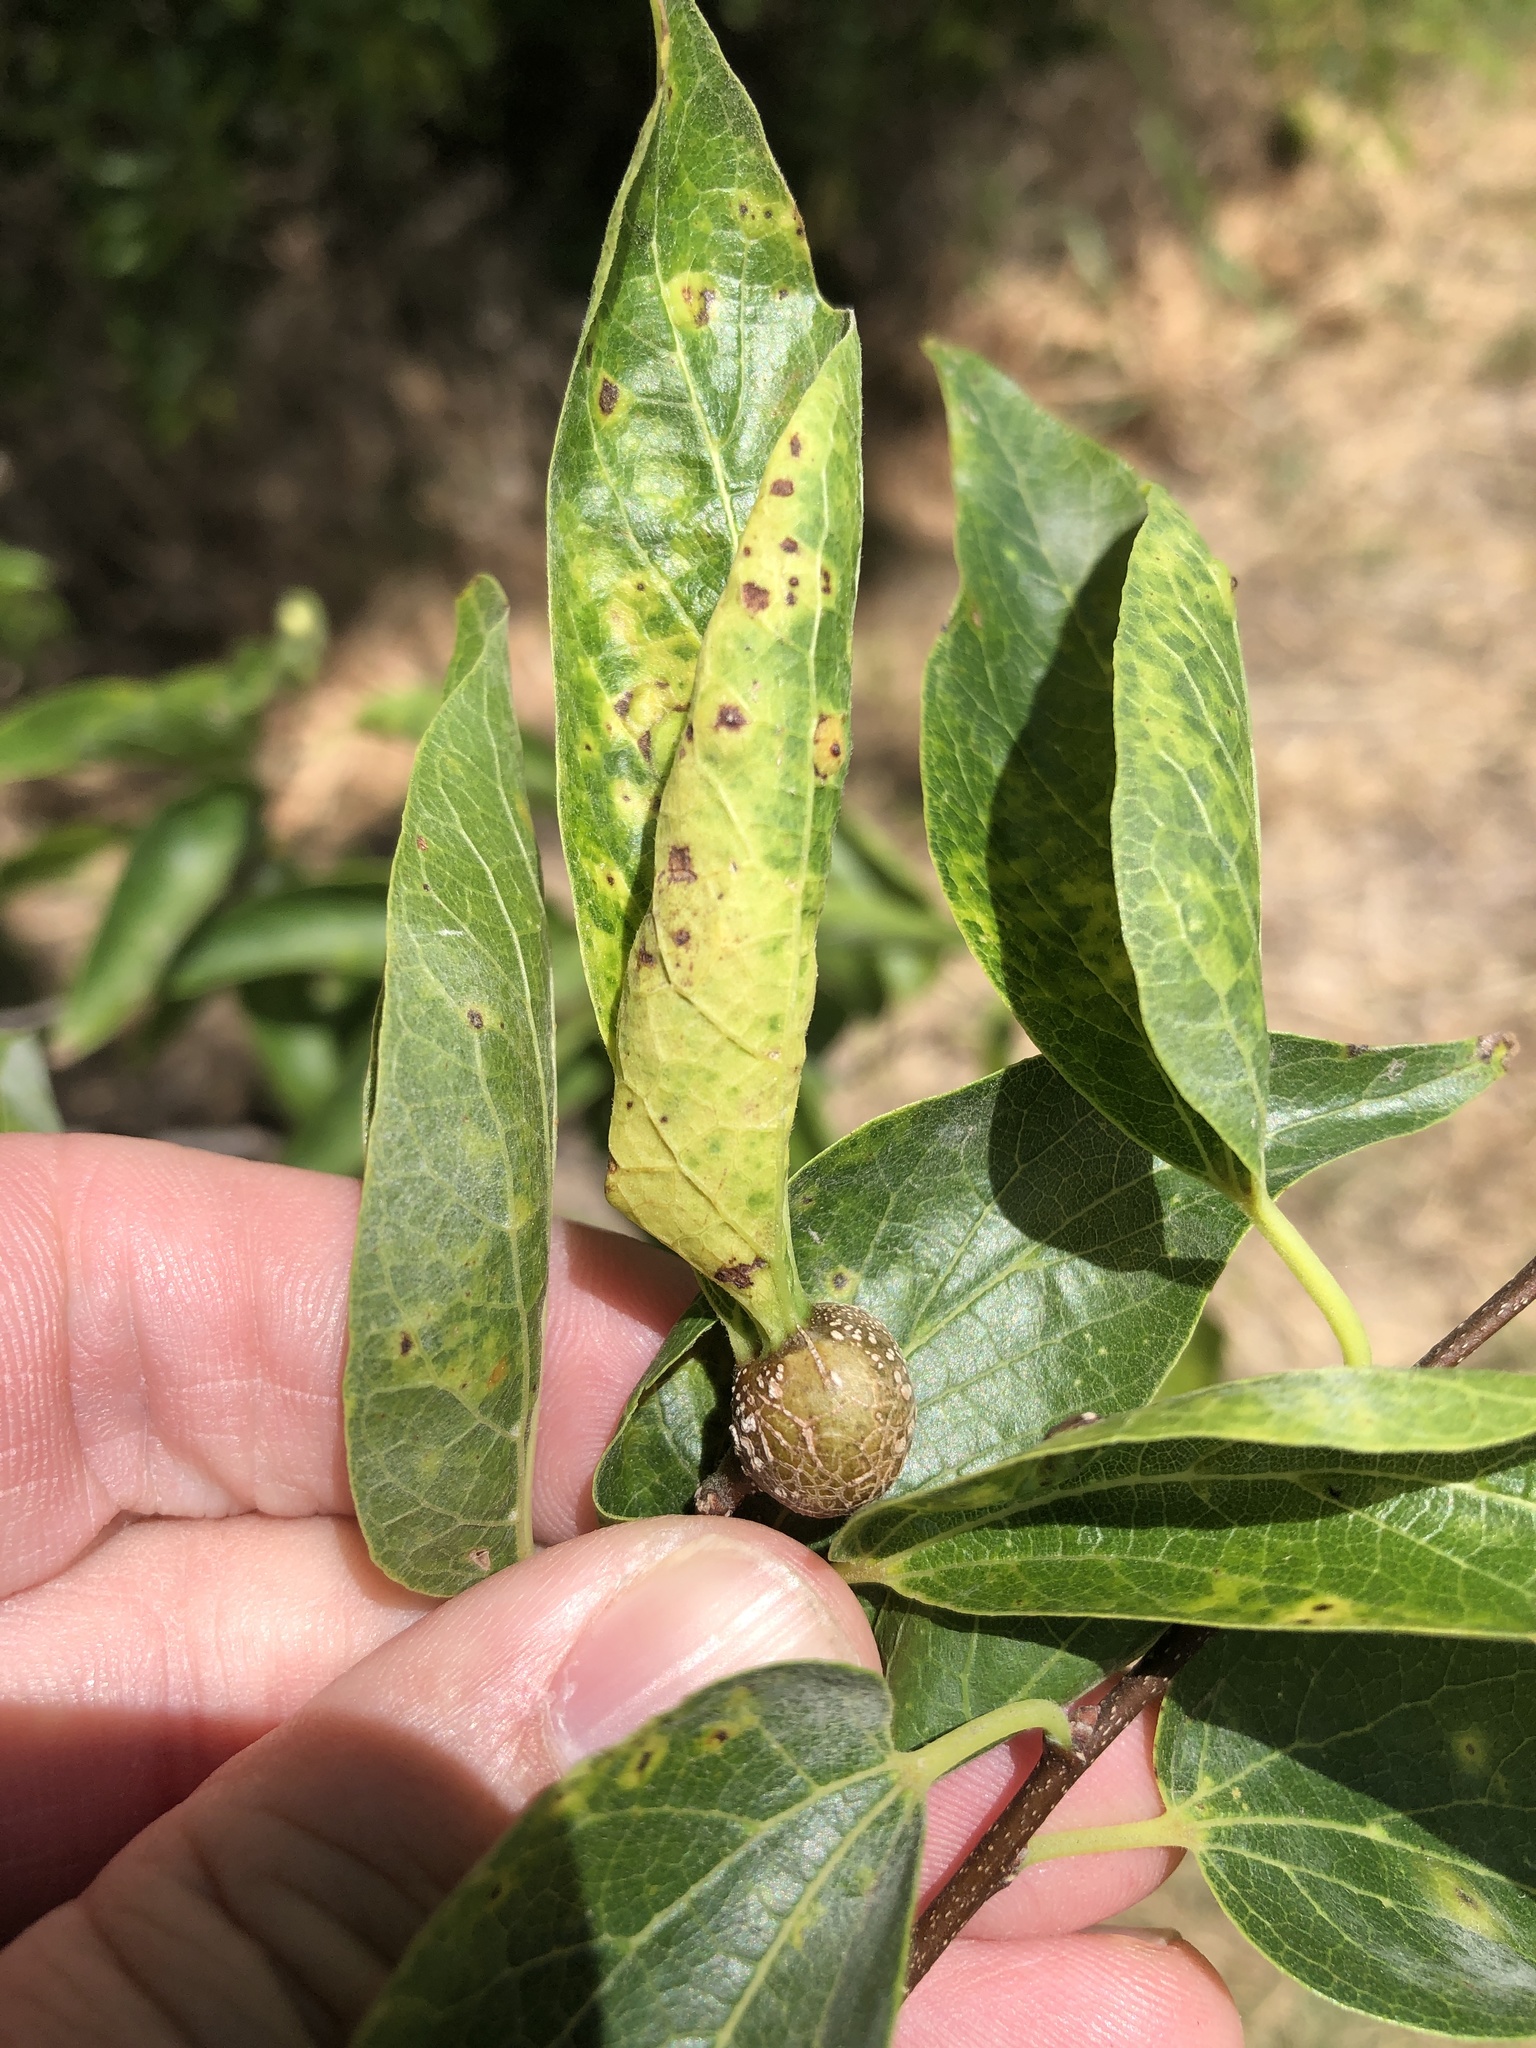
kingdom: Animalia
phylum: Arthropoda
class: Insecta
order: Hemiptera
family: Aphalaridae
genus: Pachypsylla
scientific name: Pachypsylla venusta
